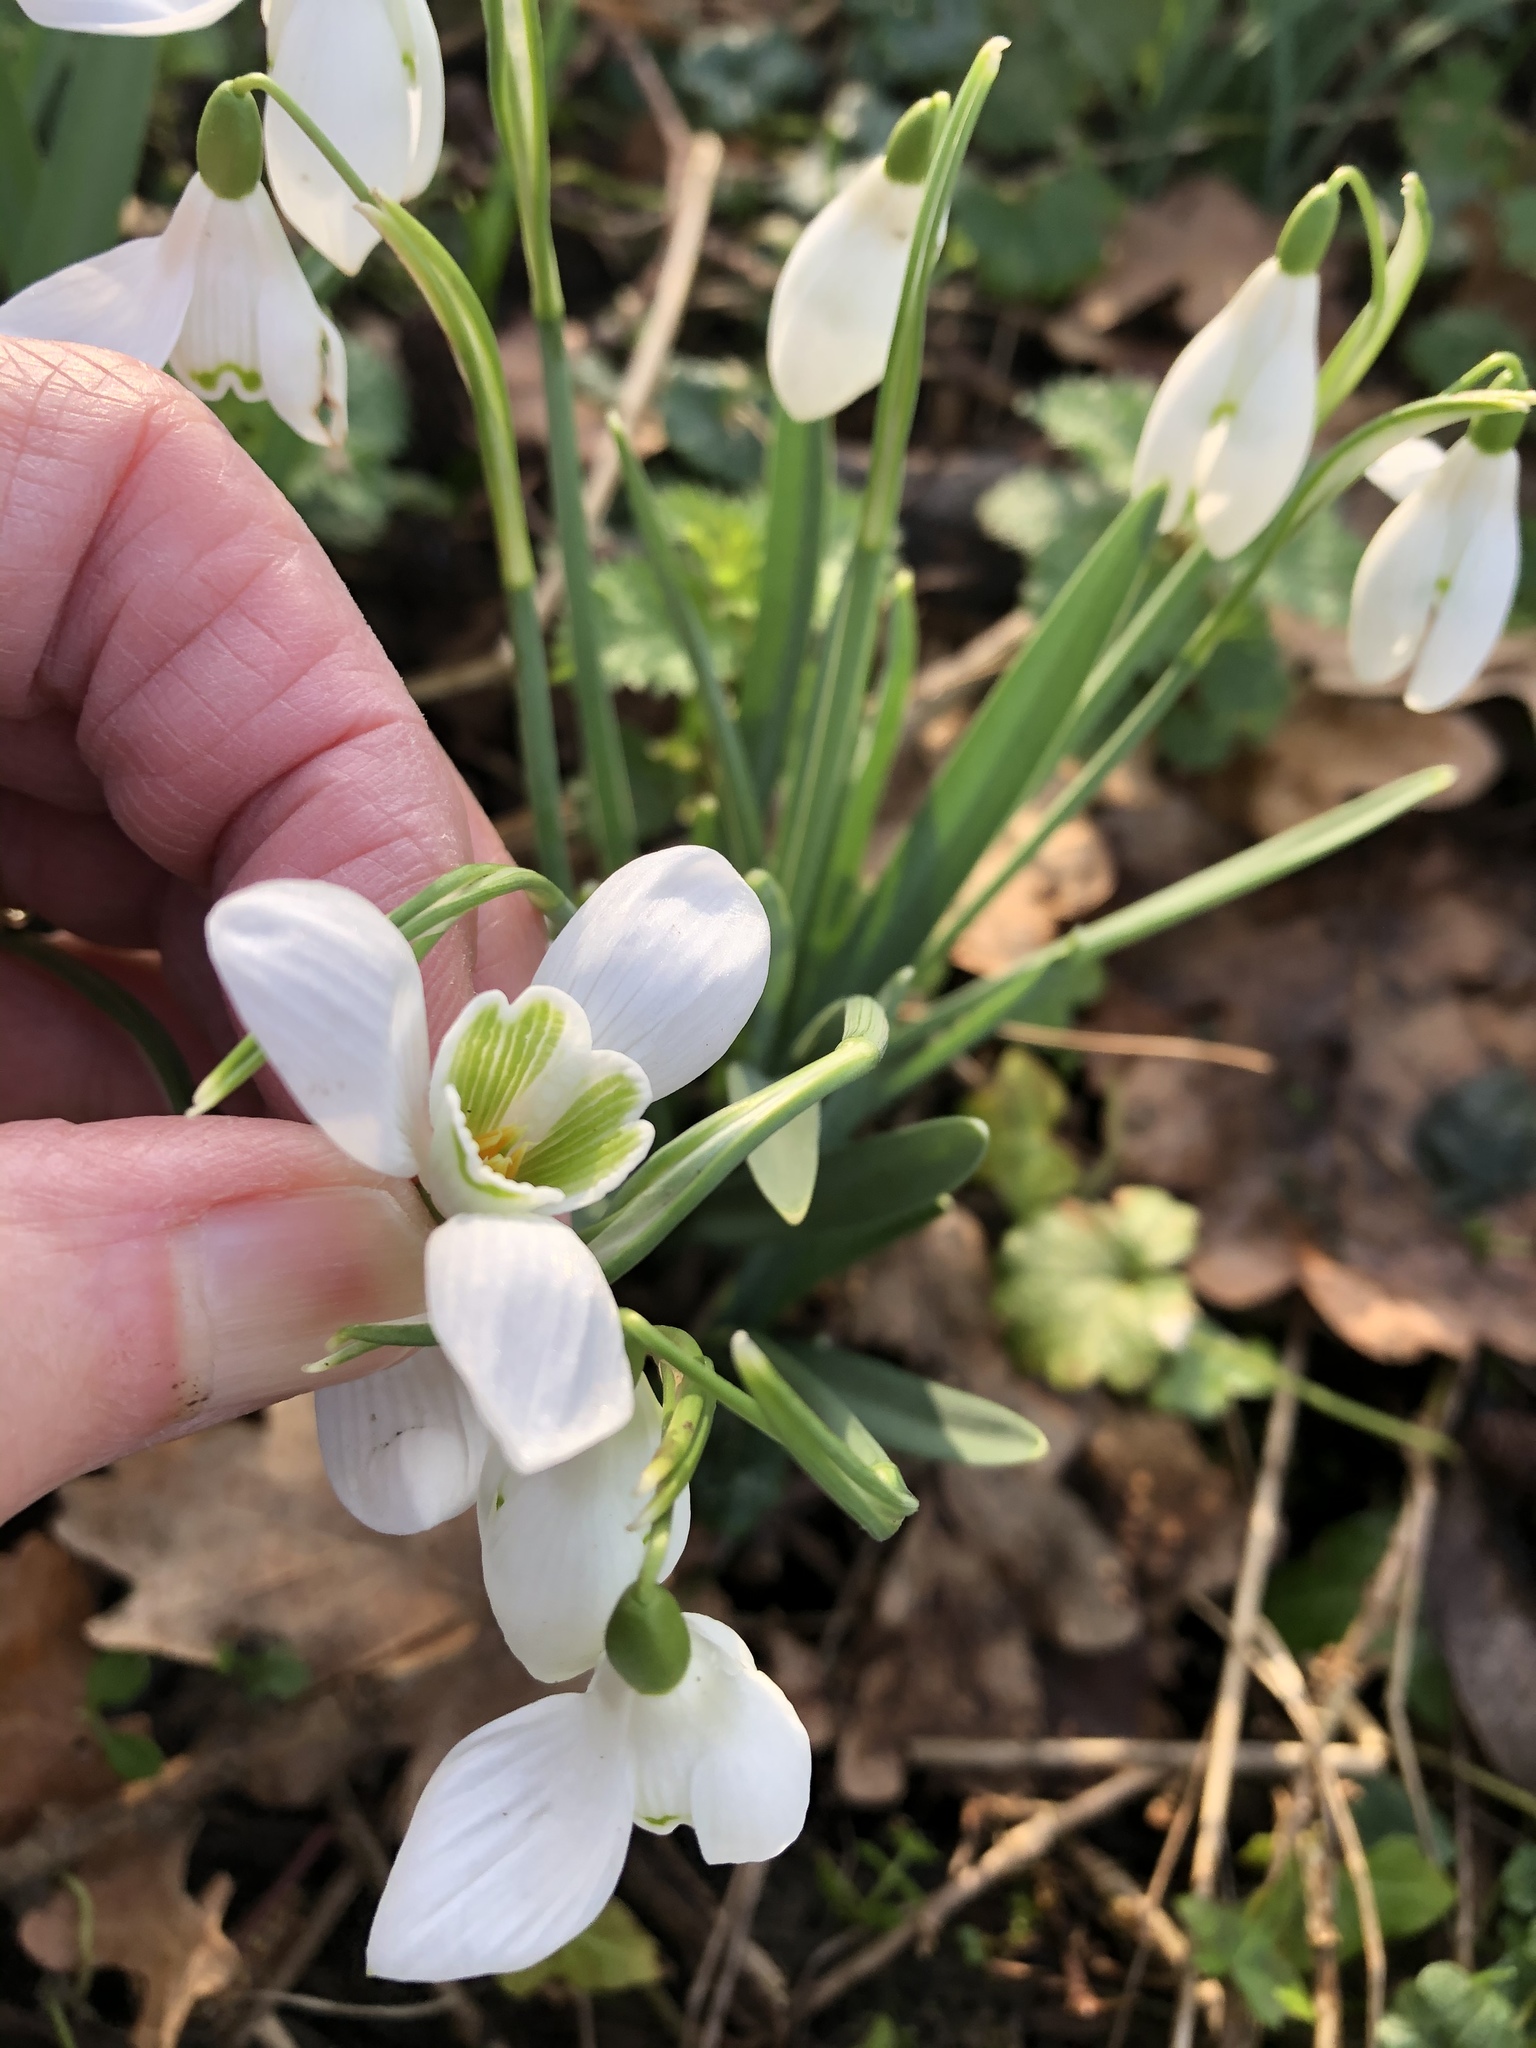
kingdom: Plantae
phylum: Tracheophyta
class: Liliopsida
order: Asparagales
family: Amaryllidaceae
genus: Galanthus
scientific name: Galanthus nivalis
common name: Snowdrop
